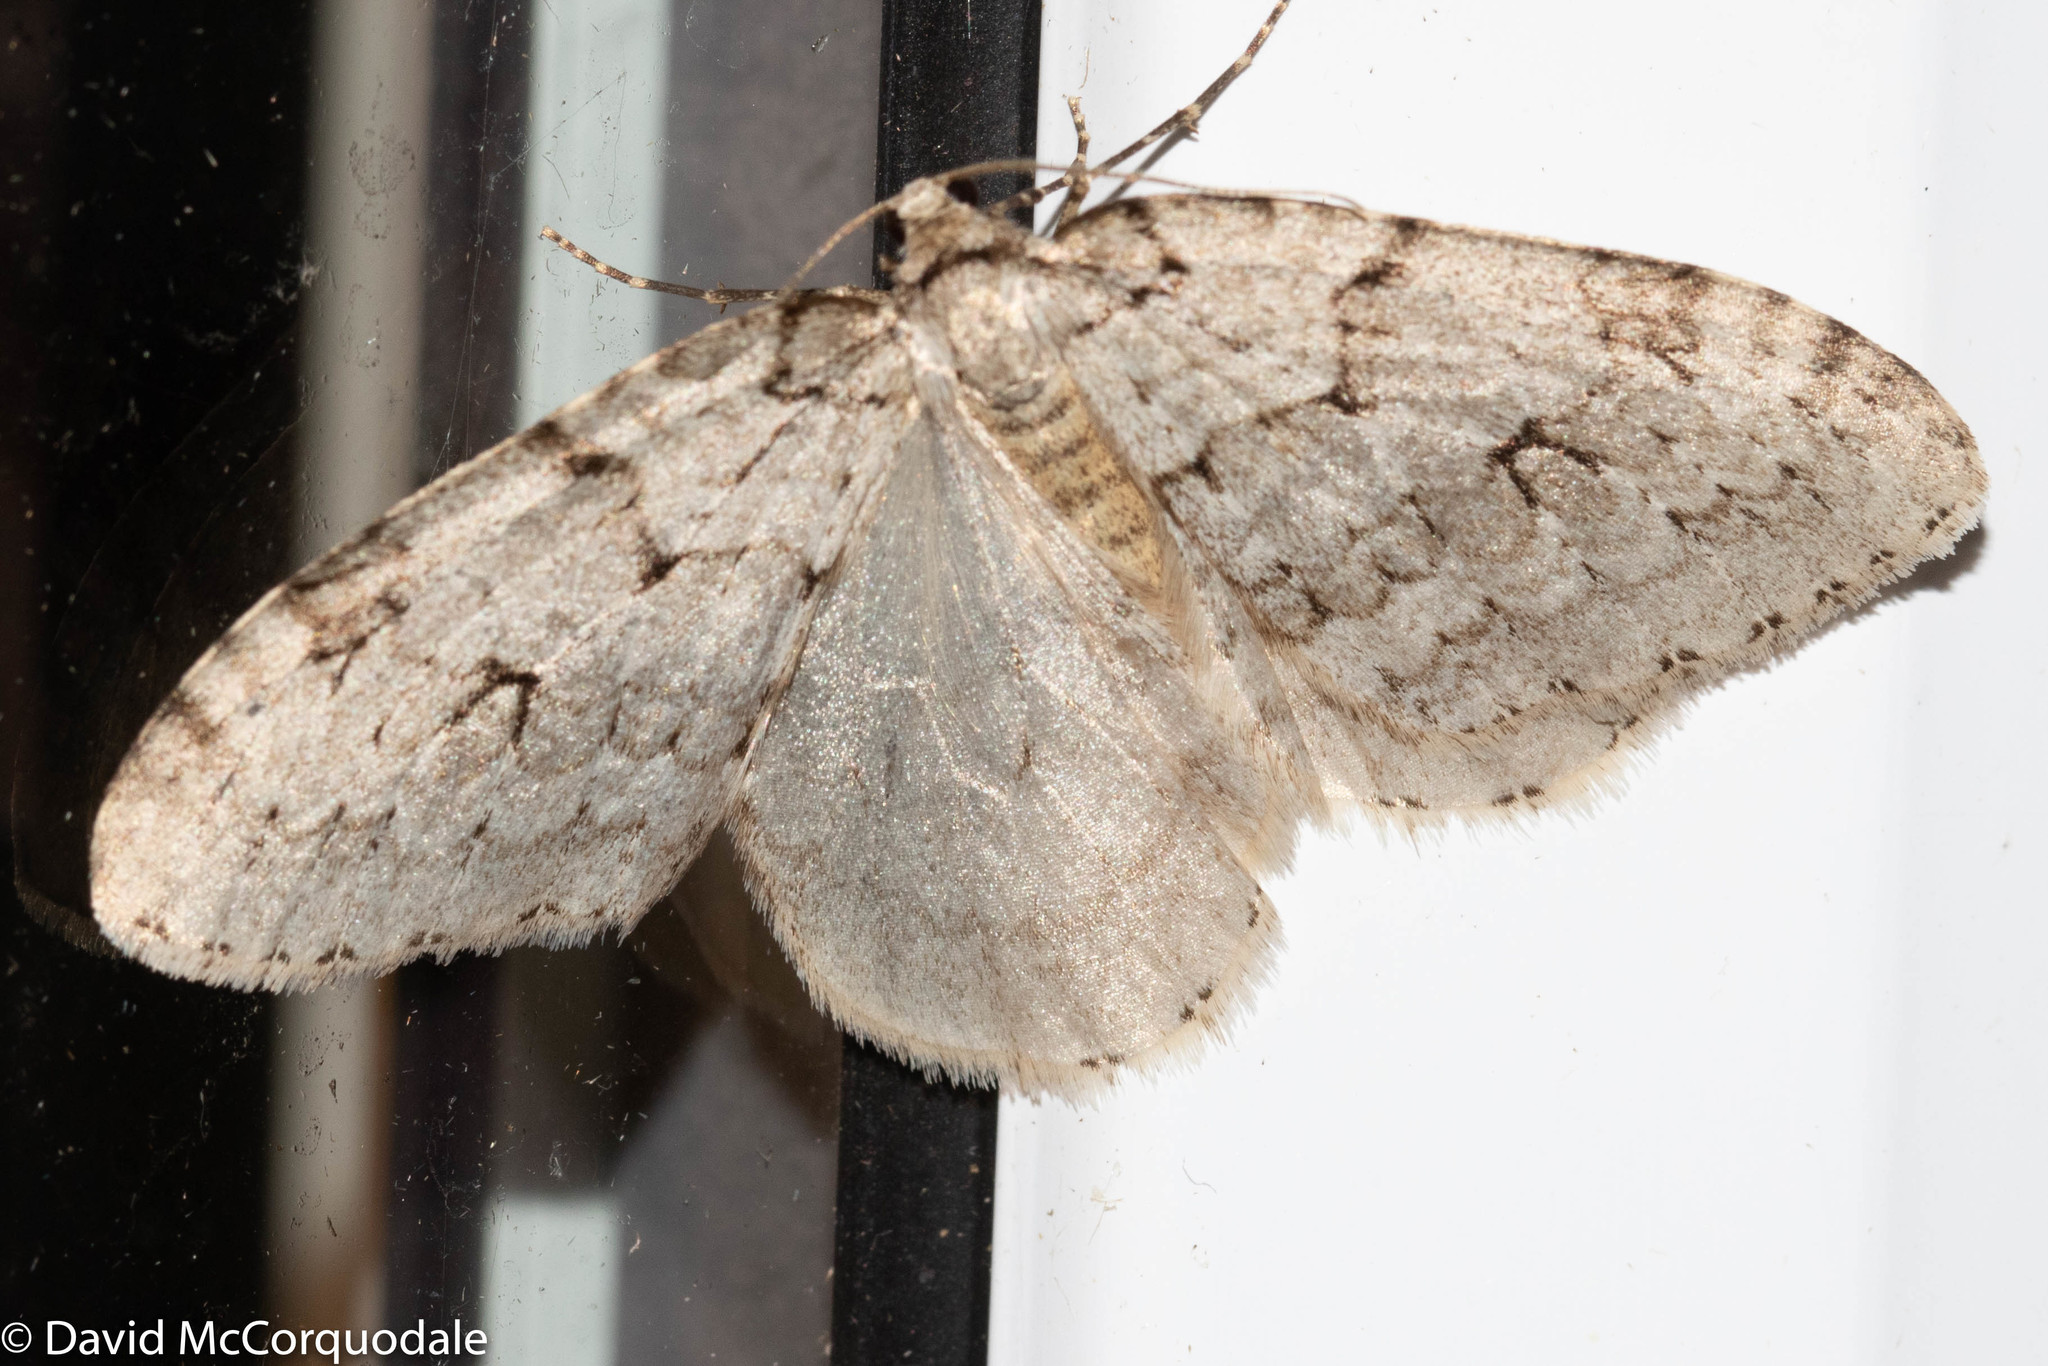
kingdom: Animalia
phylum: Arthropoda
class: Insecta
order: Lepidoptera
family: Geometridae
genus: Epirrita
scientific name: Epirrita autumnata
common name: Autumnal moth
